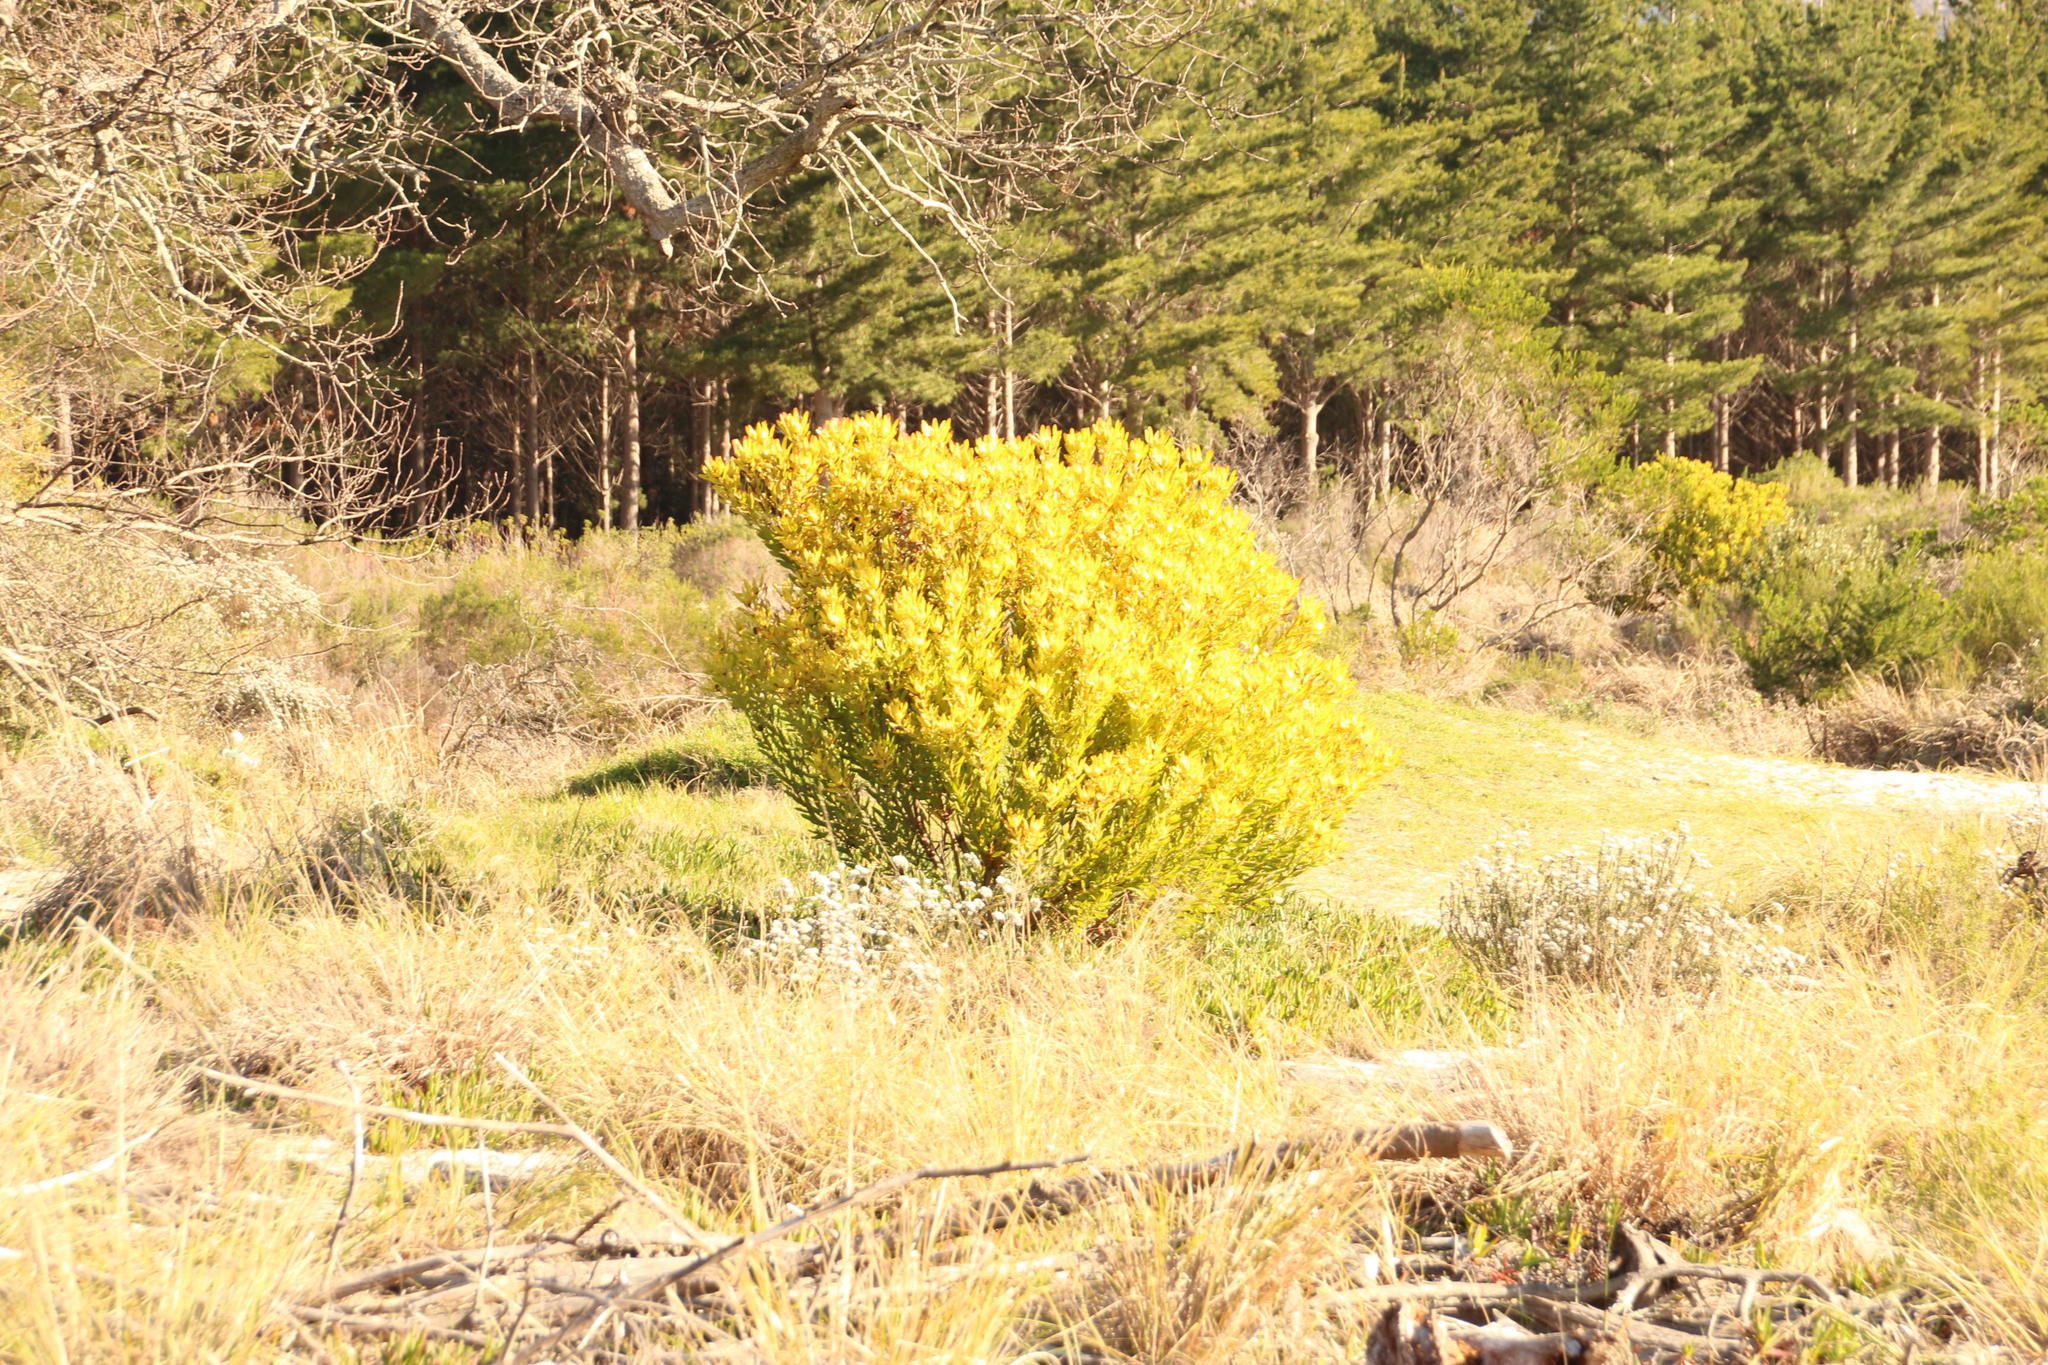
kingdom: Plantae
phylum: Tracheophyta
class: Magnoliopsida
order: Proteales
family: Proteaceae
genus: Leucadendron
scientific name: Leucadendron laureolum
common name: Golden sunshinebush
